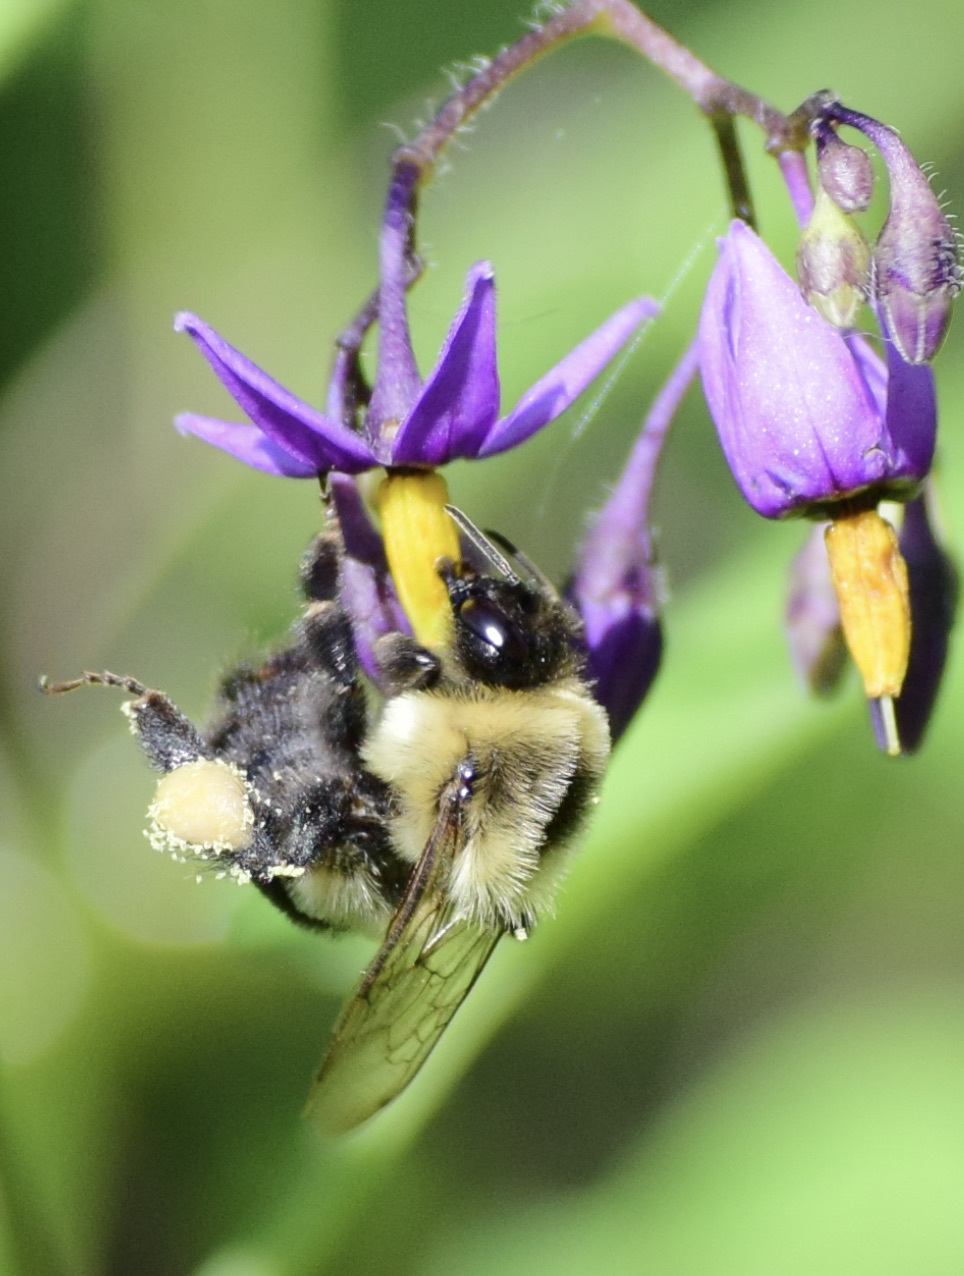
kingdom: Animalia
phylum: Arthropoda
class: Insecta
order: Hymenoptera
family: Apidae
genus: Bombus
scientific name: Bombus impatiens
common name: Common eastern bumble bee
